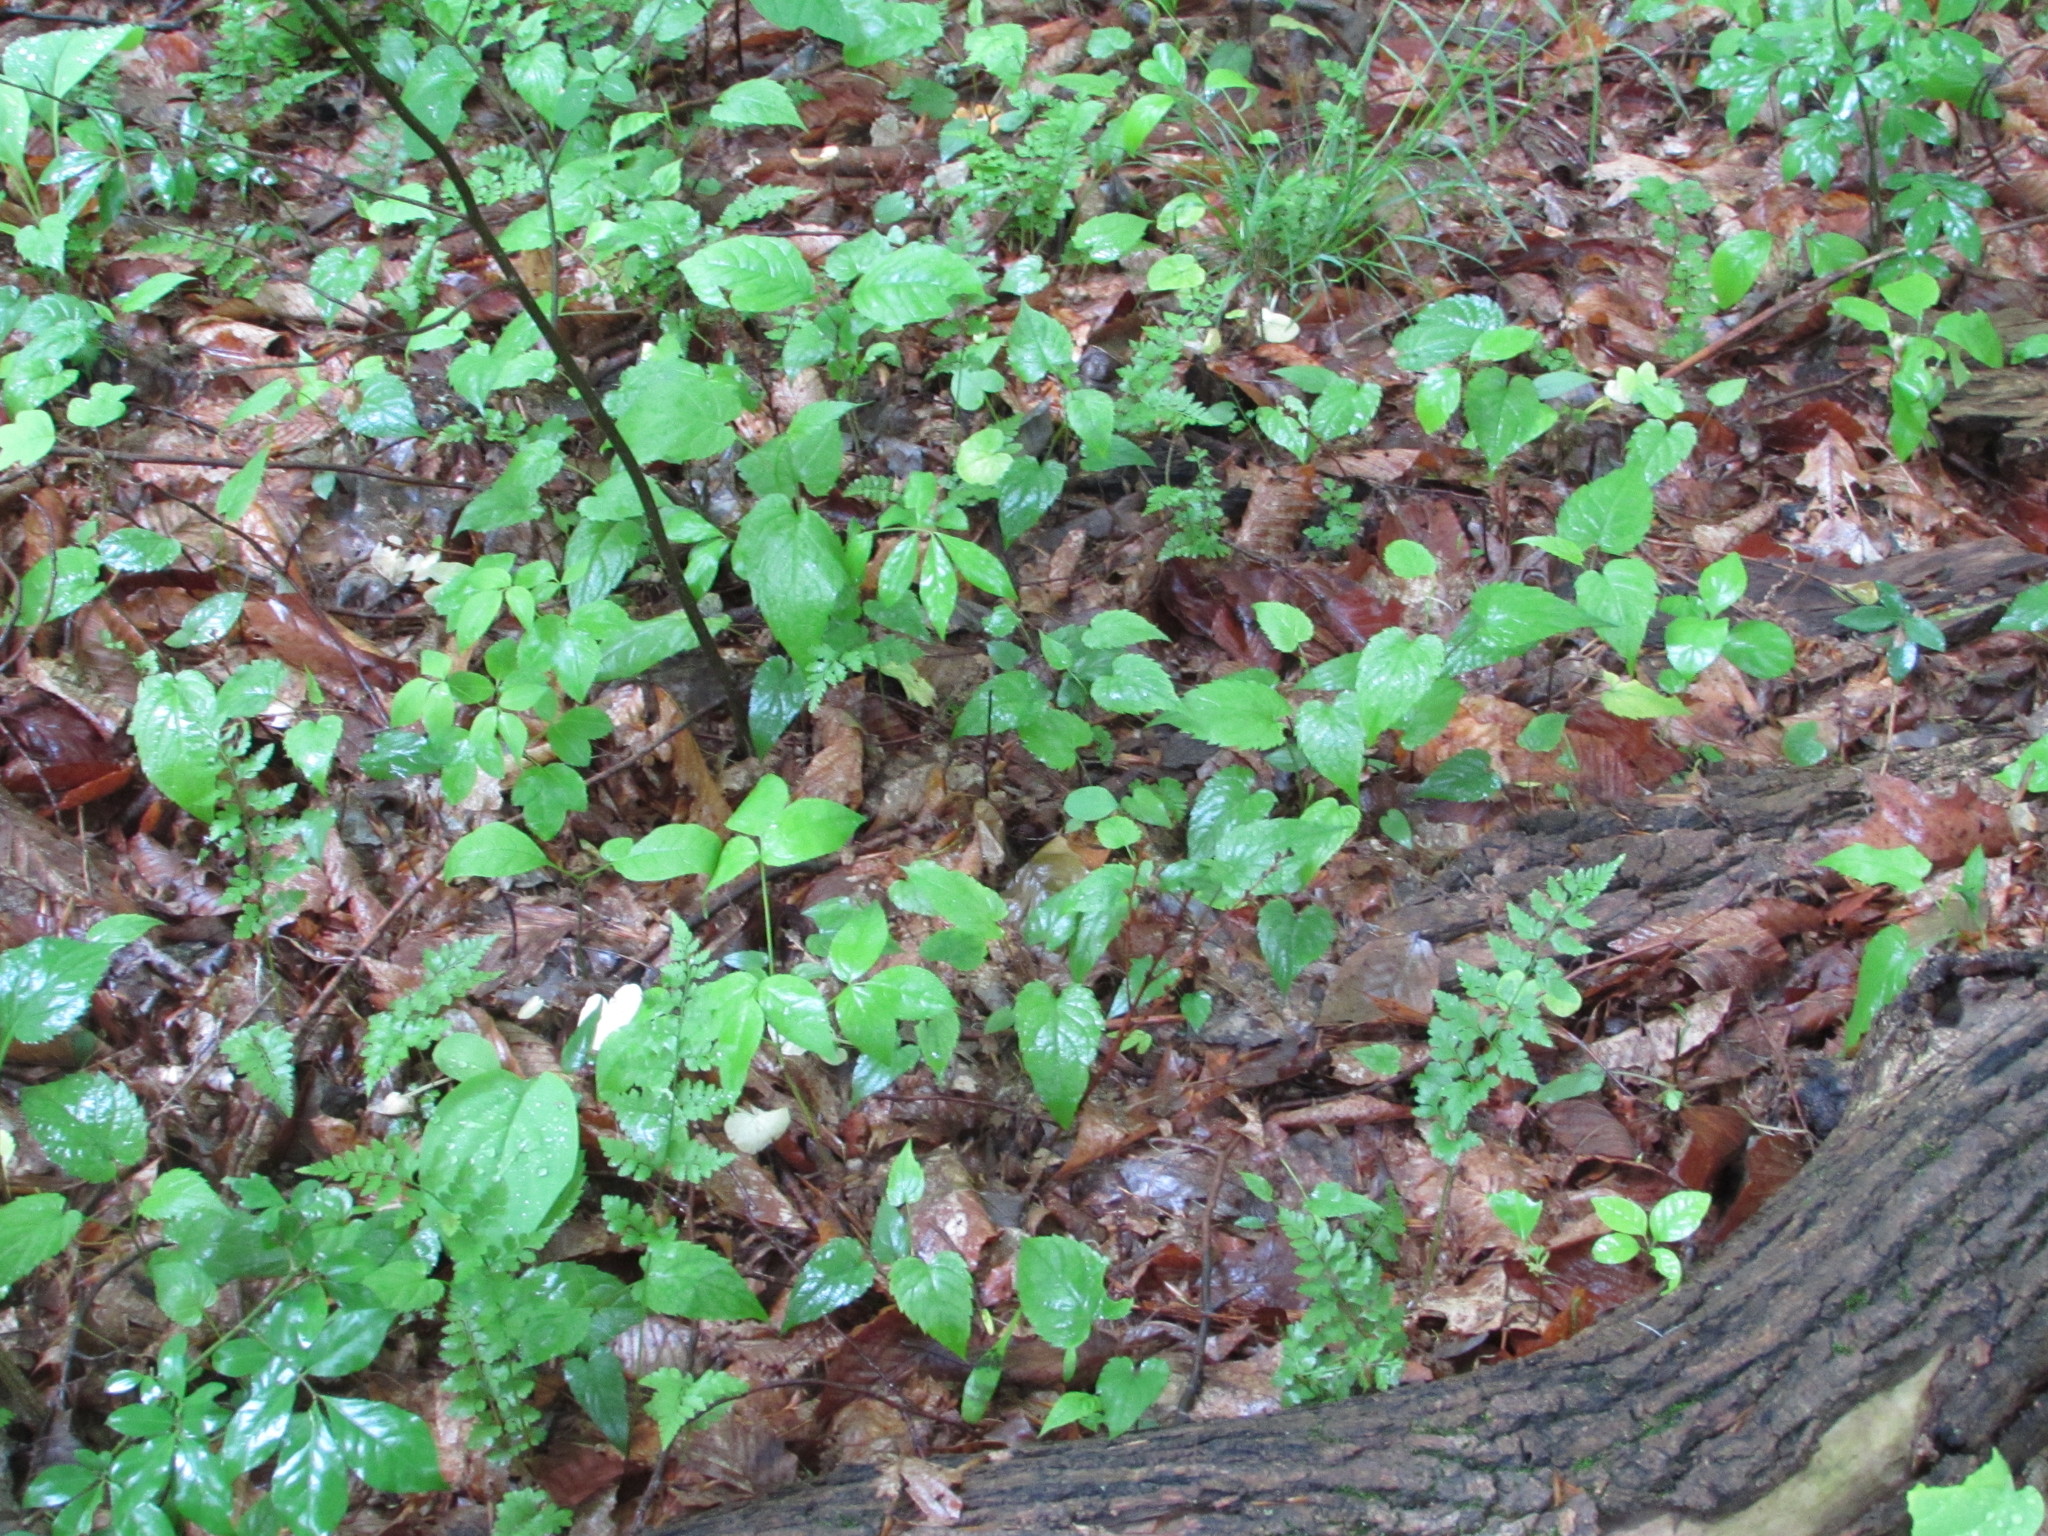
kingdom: Plantae
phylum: Tracheophyta
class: Polypodiopsida
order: Polypodiales
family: Cystopteridaceae
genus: Cystopteris
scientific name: Cystopteris protrusa
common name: Lowland brittle fern
